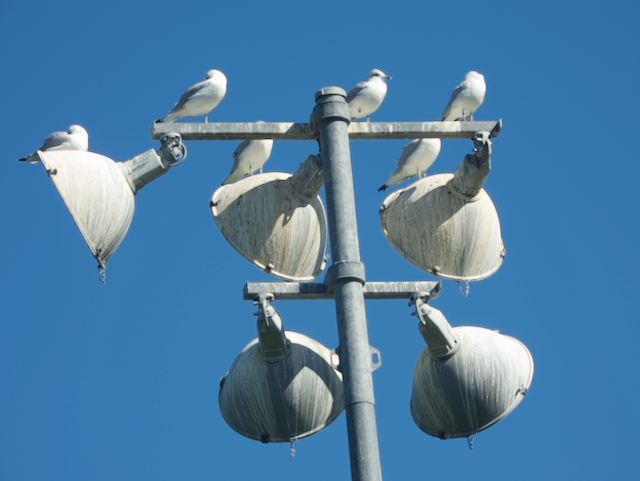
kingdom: Animalia
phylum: Chordata
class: Aves
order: Charadriiformes
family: Laridae
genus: Larus
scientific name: Larus delawarensis
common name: Ring-billed gull
